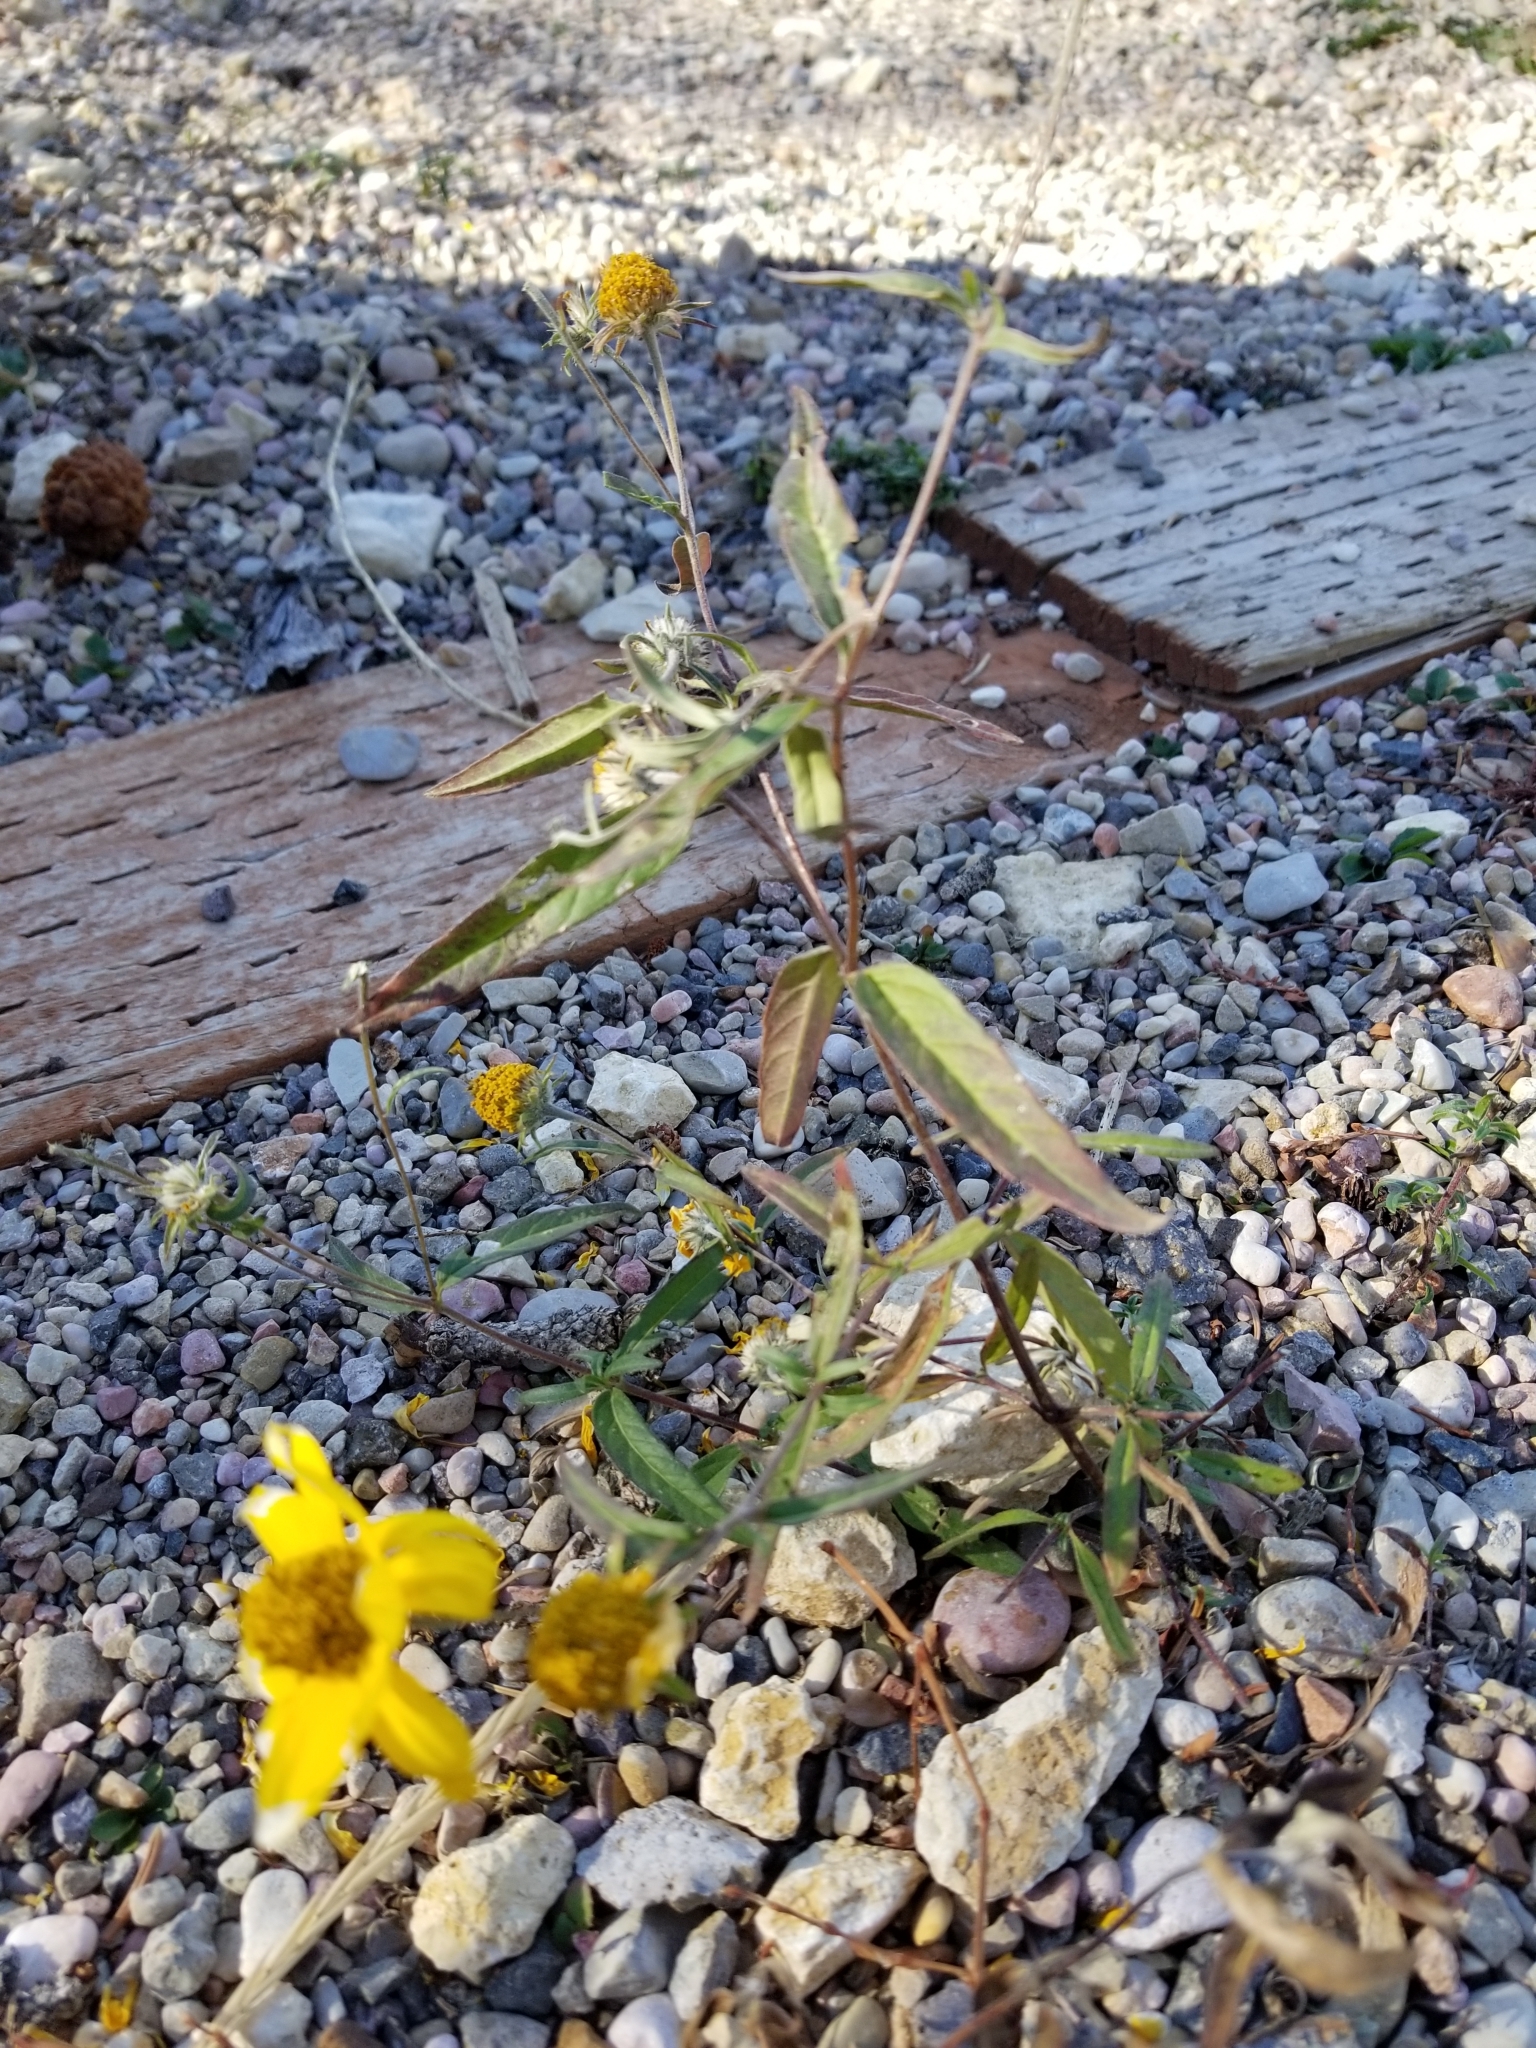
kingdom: Plantae
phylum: Tracheophyta
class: Magnoliopsida
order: Asterales
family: Asteraceae
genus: Heliomeris
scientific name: Heliomeris multiflora
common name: Showy goldeneye
